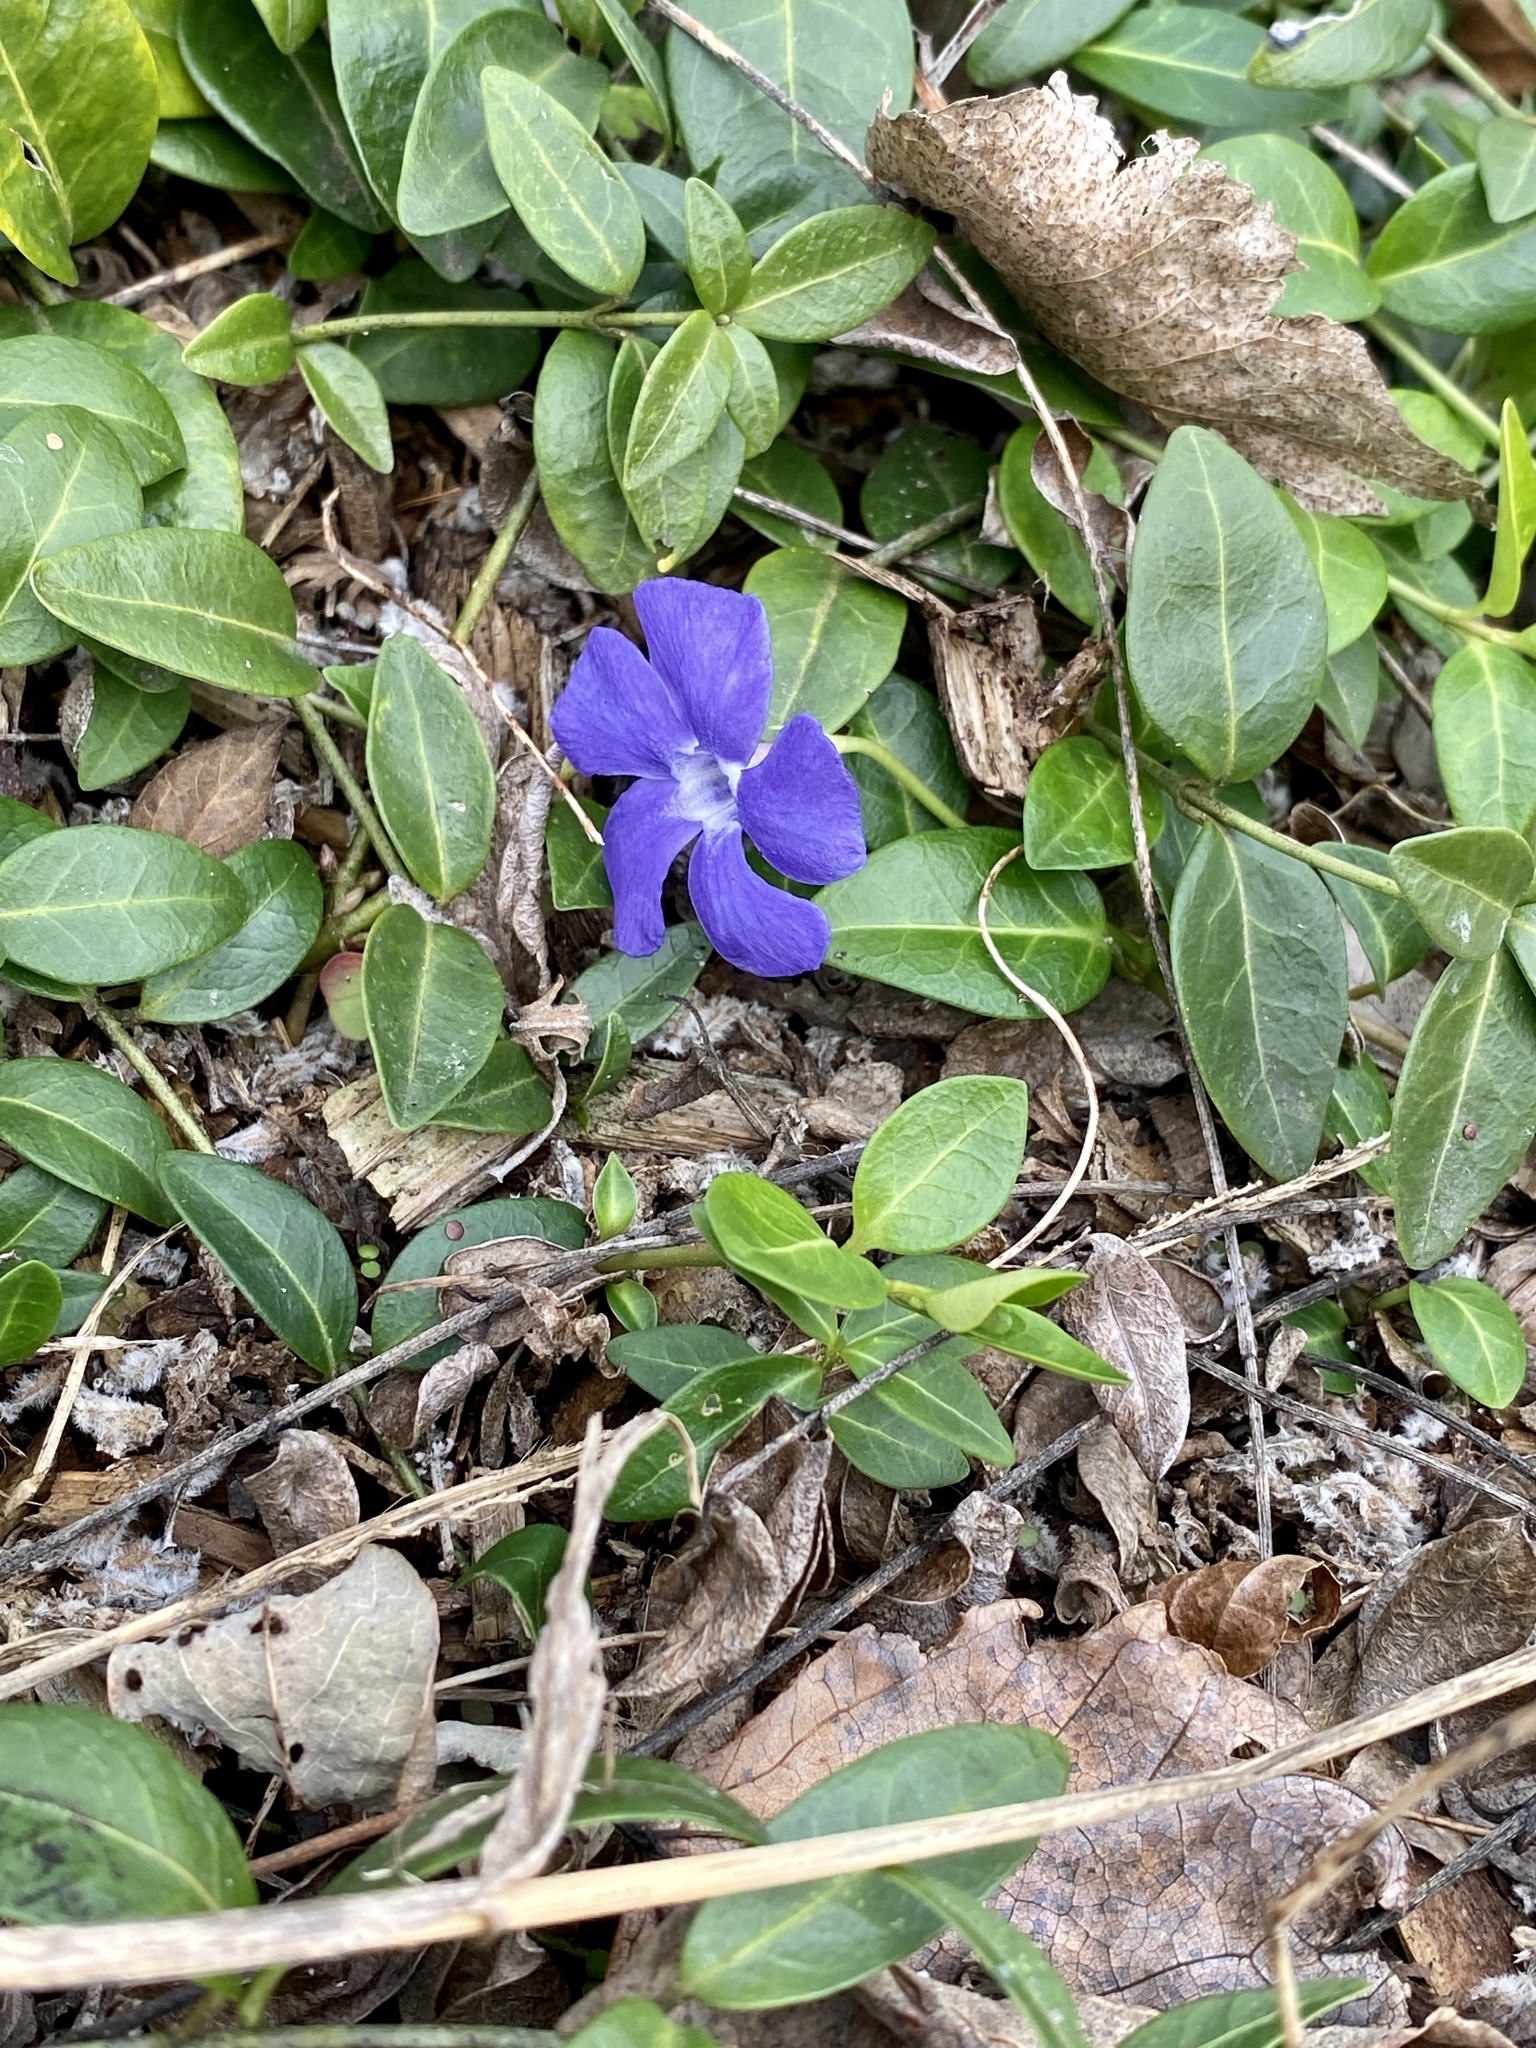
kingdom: Plantae
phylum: Tracheophyta
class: Magnoliopsida
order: Gentianales
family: Apocynaceae
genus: Vinca
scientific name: Vinca minor
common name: Lesser periwinkle
